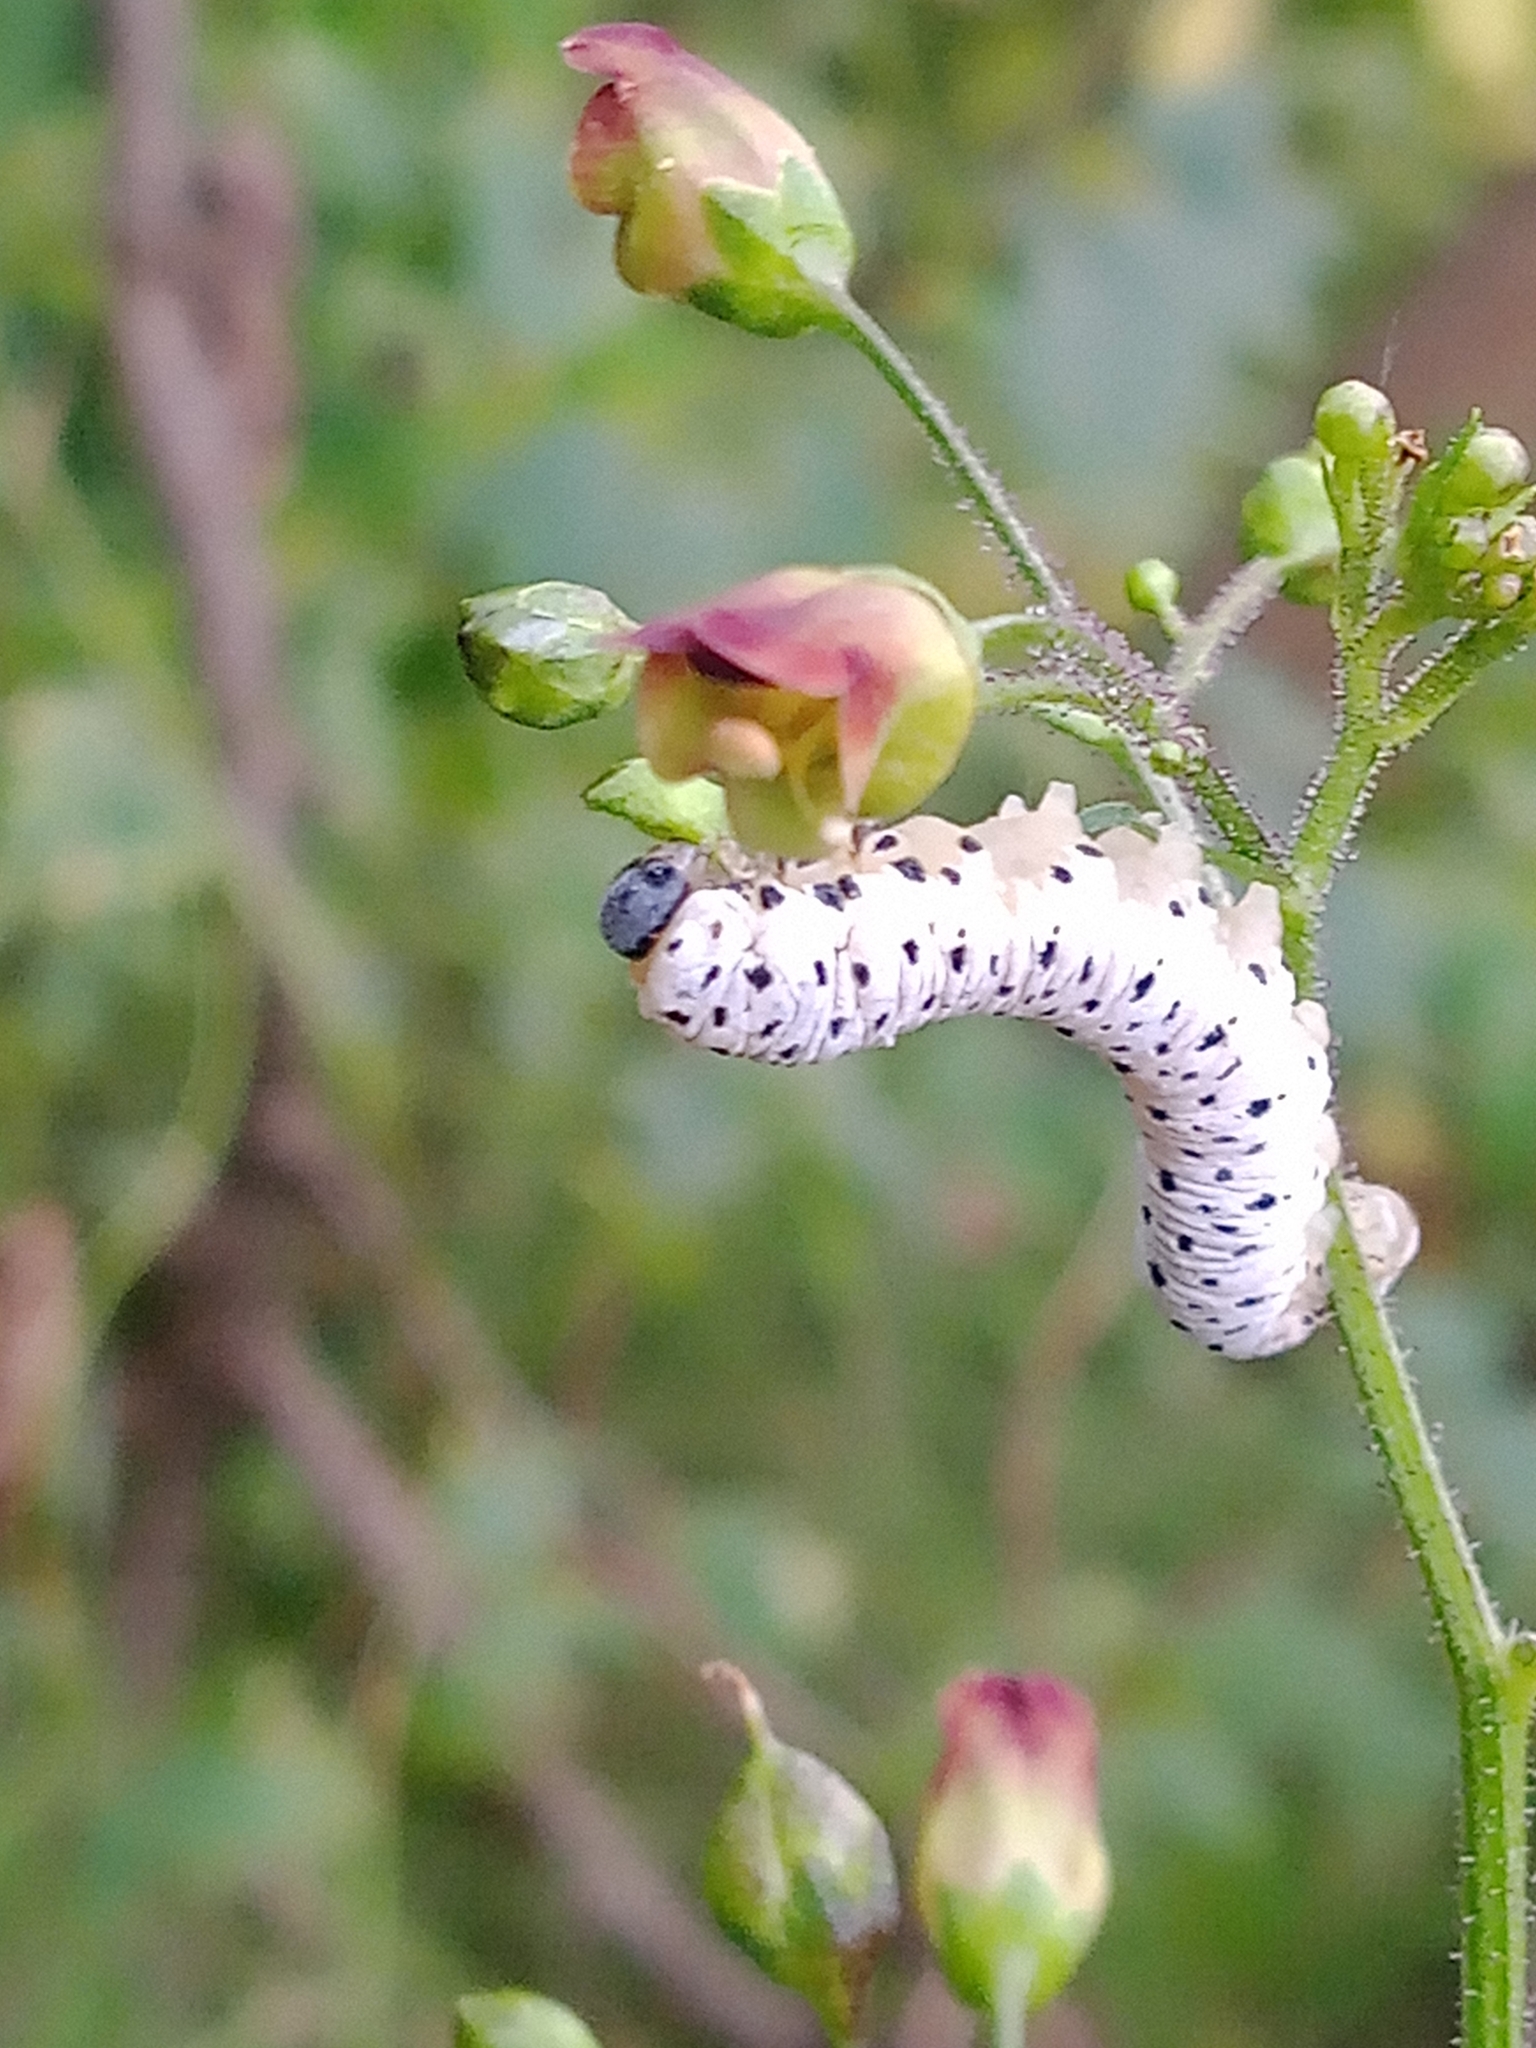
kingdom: Animalia
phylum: Arthropoda
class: Insecta
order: Hymenoptera
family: Tenthredinidae
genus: Tenthredo
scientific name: Tenthredo scrophulariae
